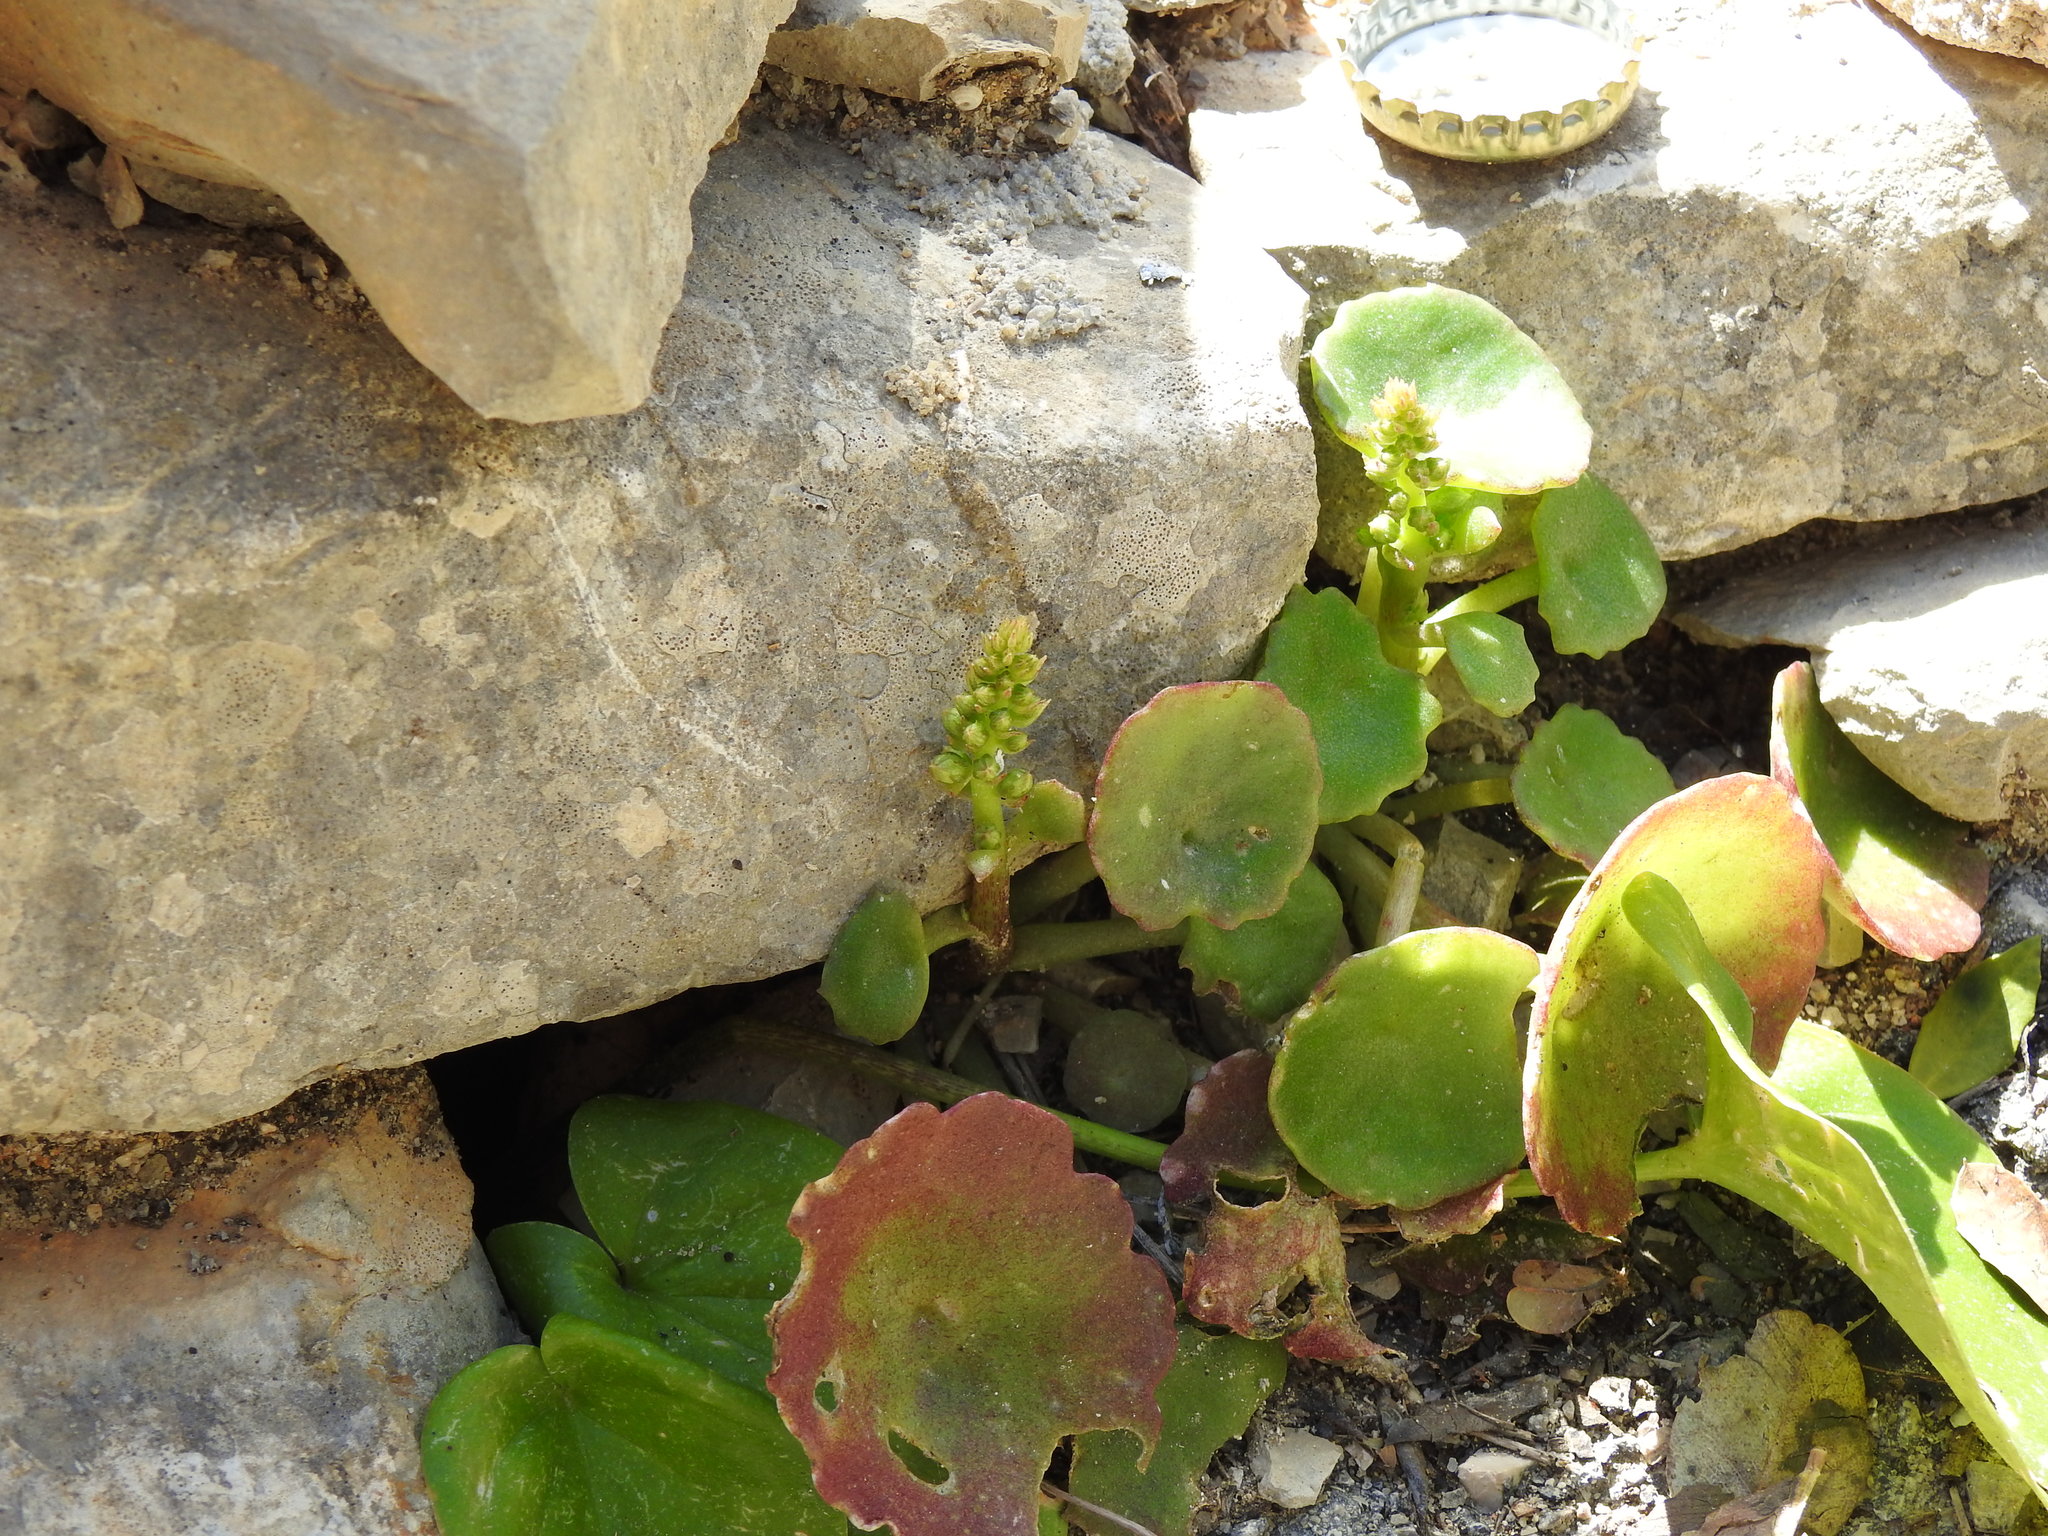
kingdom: Plantae
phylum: Tracheophyta
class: Magnoliopsida
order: Saxifragales
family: Crassulaceae
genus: Umbilicus
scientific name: Umbilicus rupestris
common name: Navelwort
